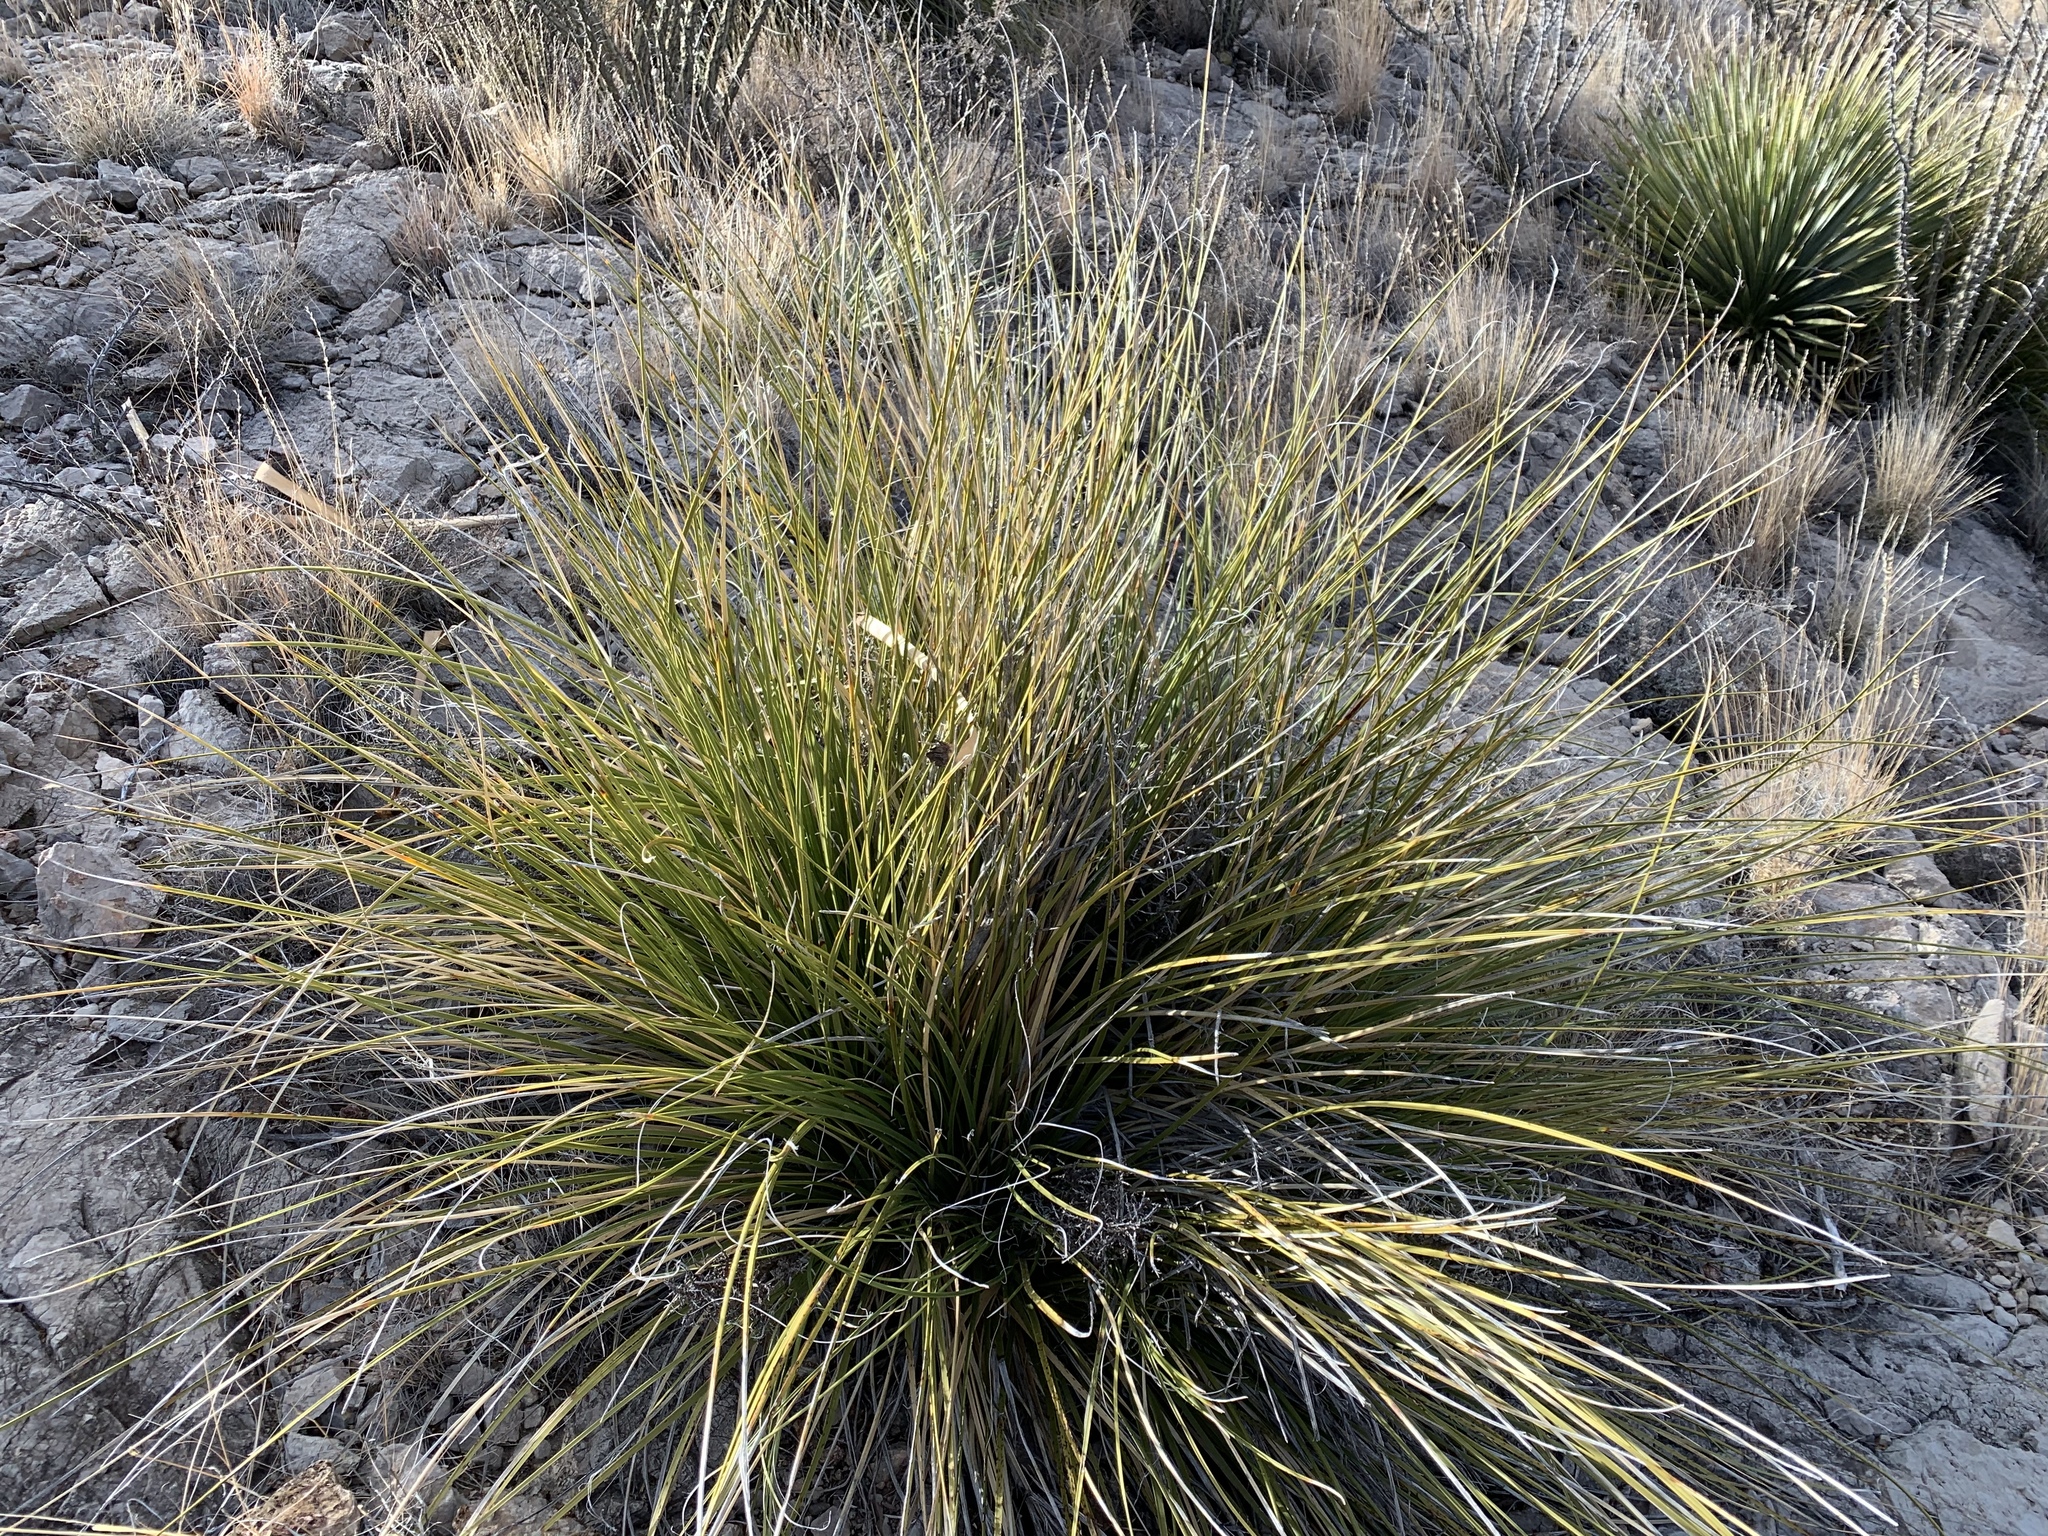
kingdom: Plantae
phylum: Tracheophyta
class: Liliopsida
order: Asparagales
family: Asparagaceae
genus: Nolina
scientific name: Nolina texana
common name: Texas sacahuiste
